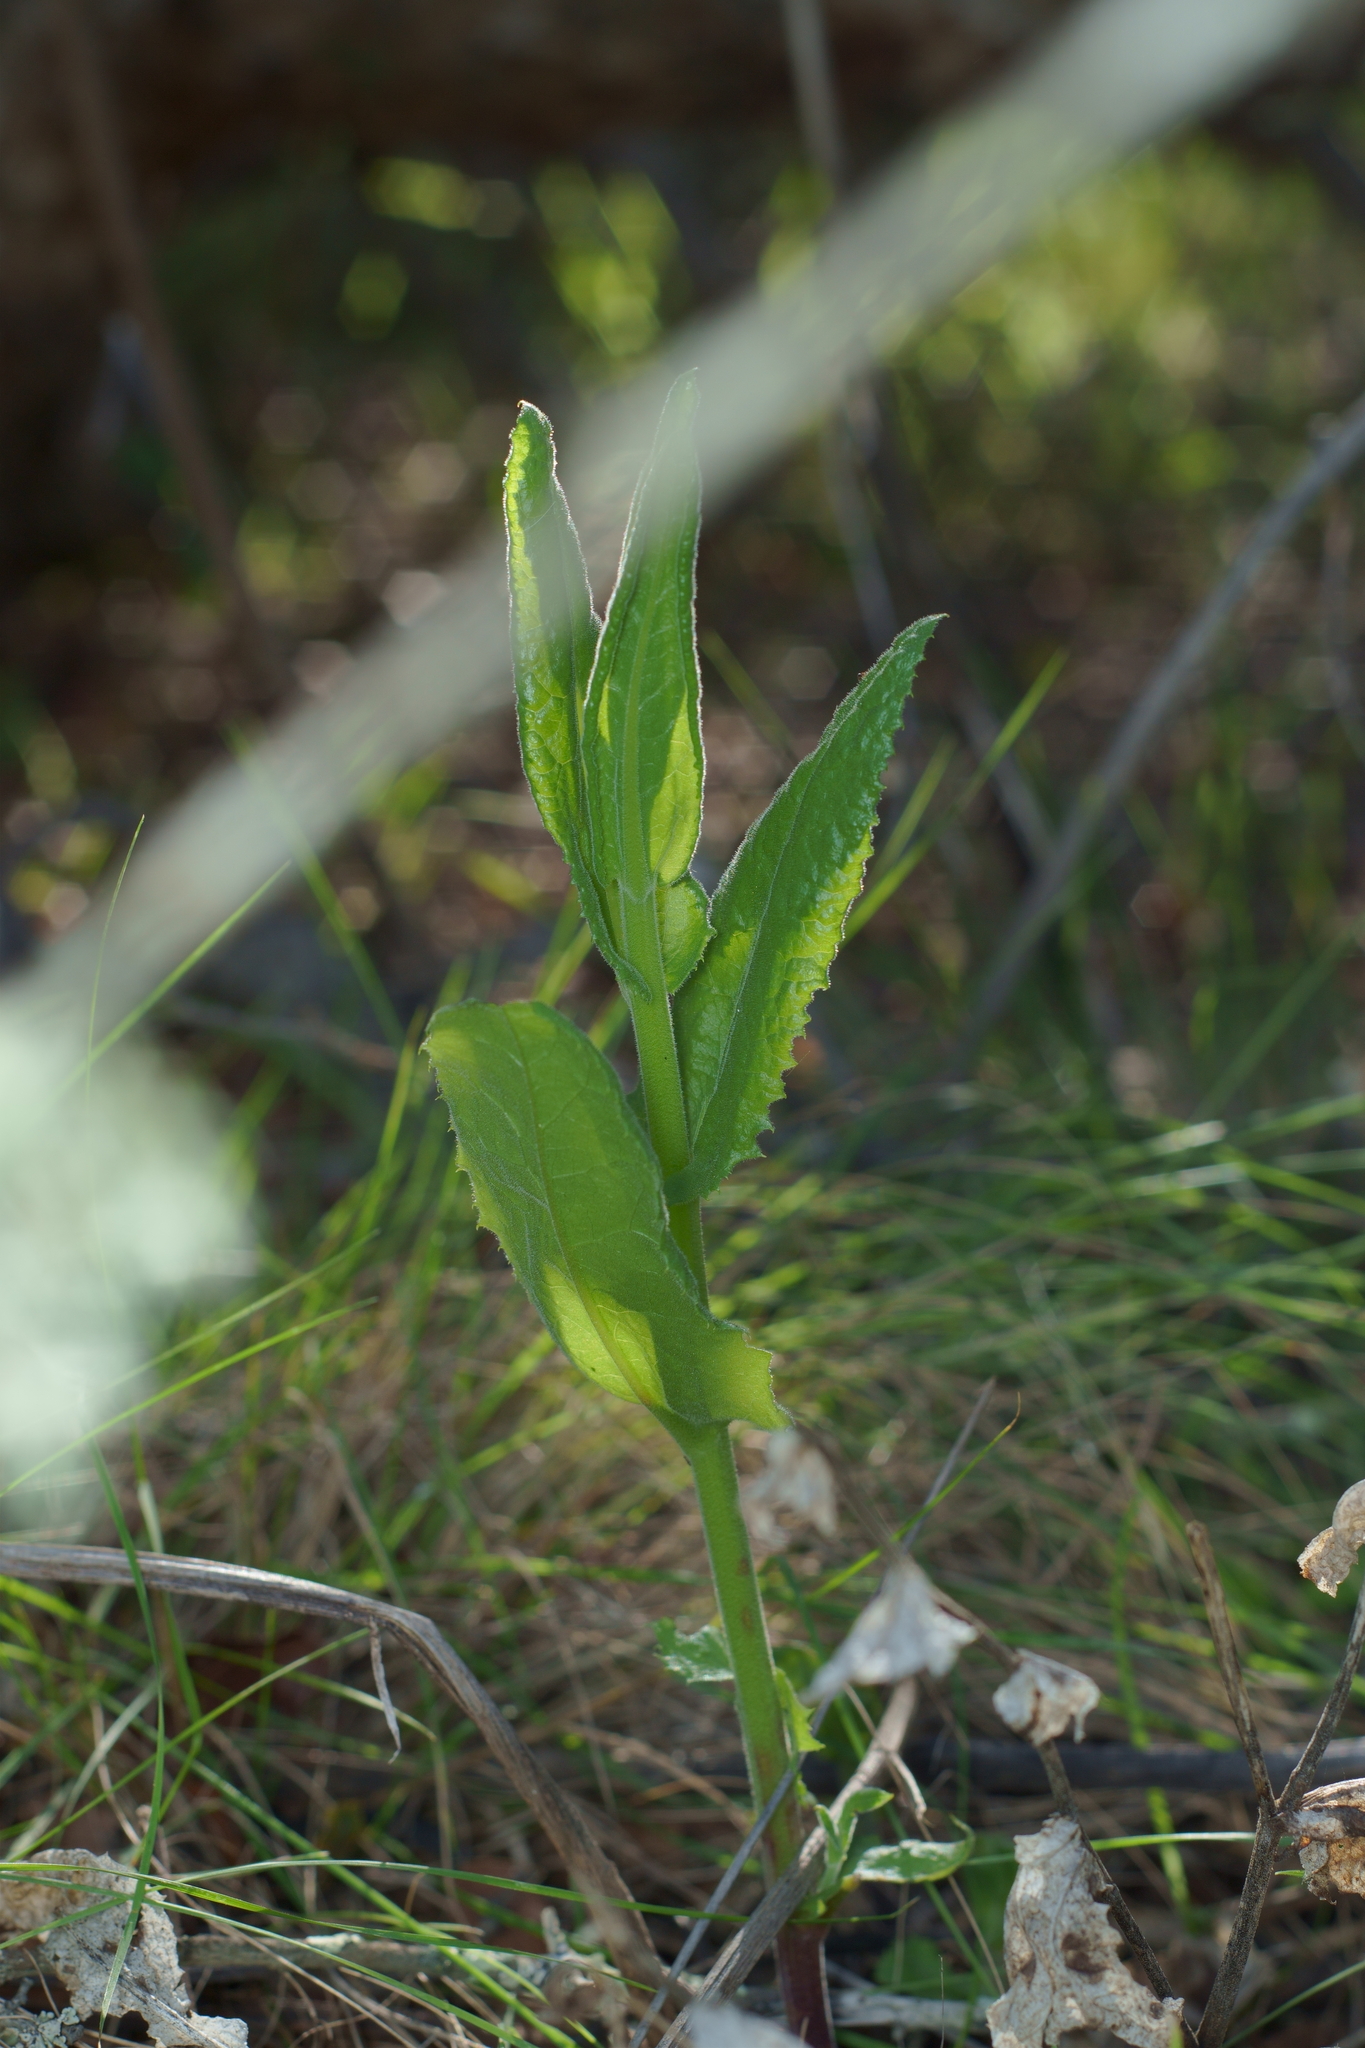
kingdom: Plantae
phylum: Tracheophyta
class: Magnoliopsida
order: Asterales
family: Asteraceae
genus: Acourtia
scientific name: Acourtia microcephala
